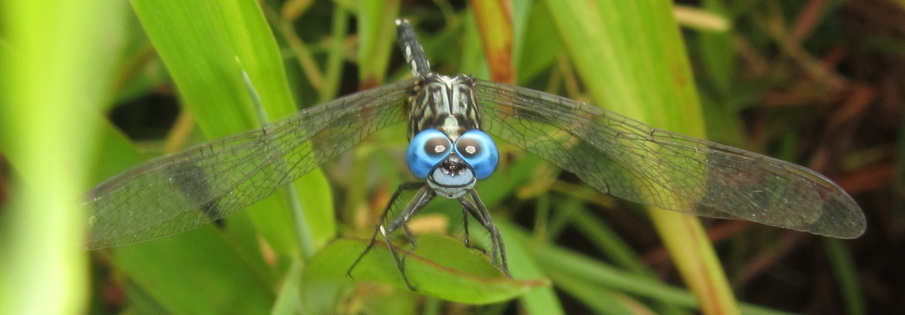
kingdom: Animalia
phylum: Arthropoda
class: Insecta
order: Odonata
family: Libellulidae
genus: Acisoma
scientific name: Acisoma variegatum
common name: Slender pintail
